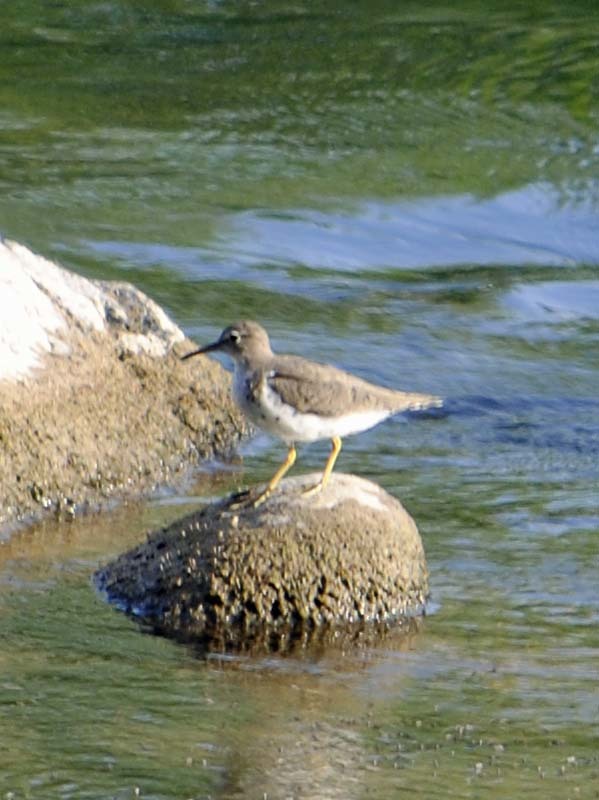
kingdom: Animalia
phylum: Chordata
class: Aves
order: Charadriiformes
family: Scolopacidae
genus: Actitis
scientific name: Actitis macularius
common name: Spotted sandpiper
